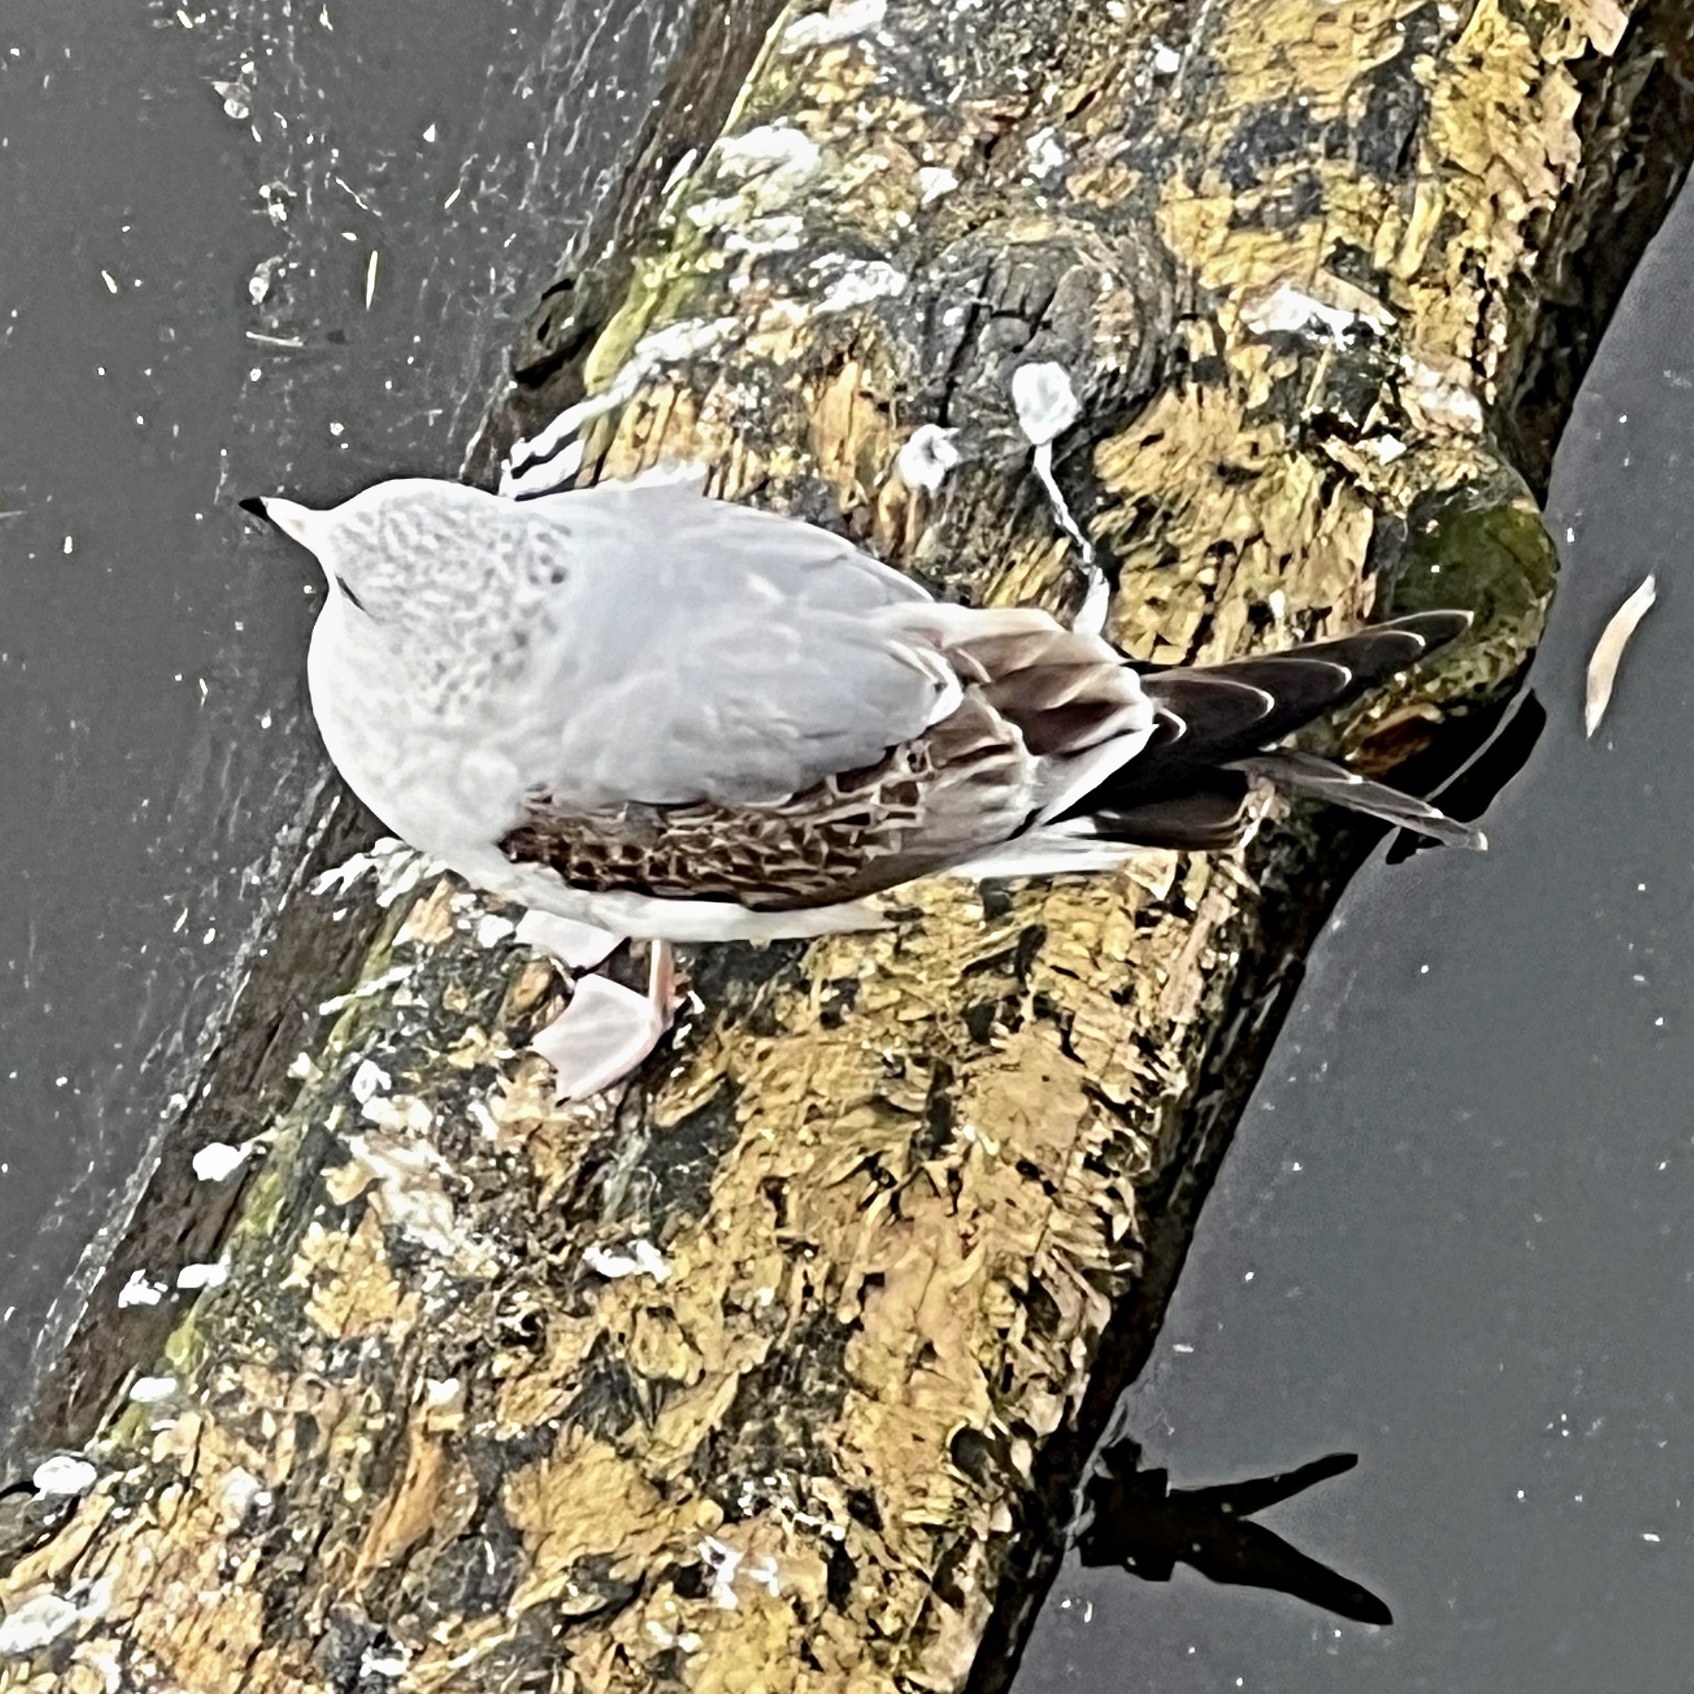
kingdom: Animalia
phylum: Chordata
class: Aves
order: Charadriiformes
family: Laridae
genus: Larus
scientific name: Larus argentatus
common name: Herring gull
